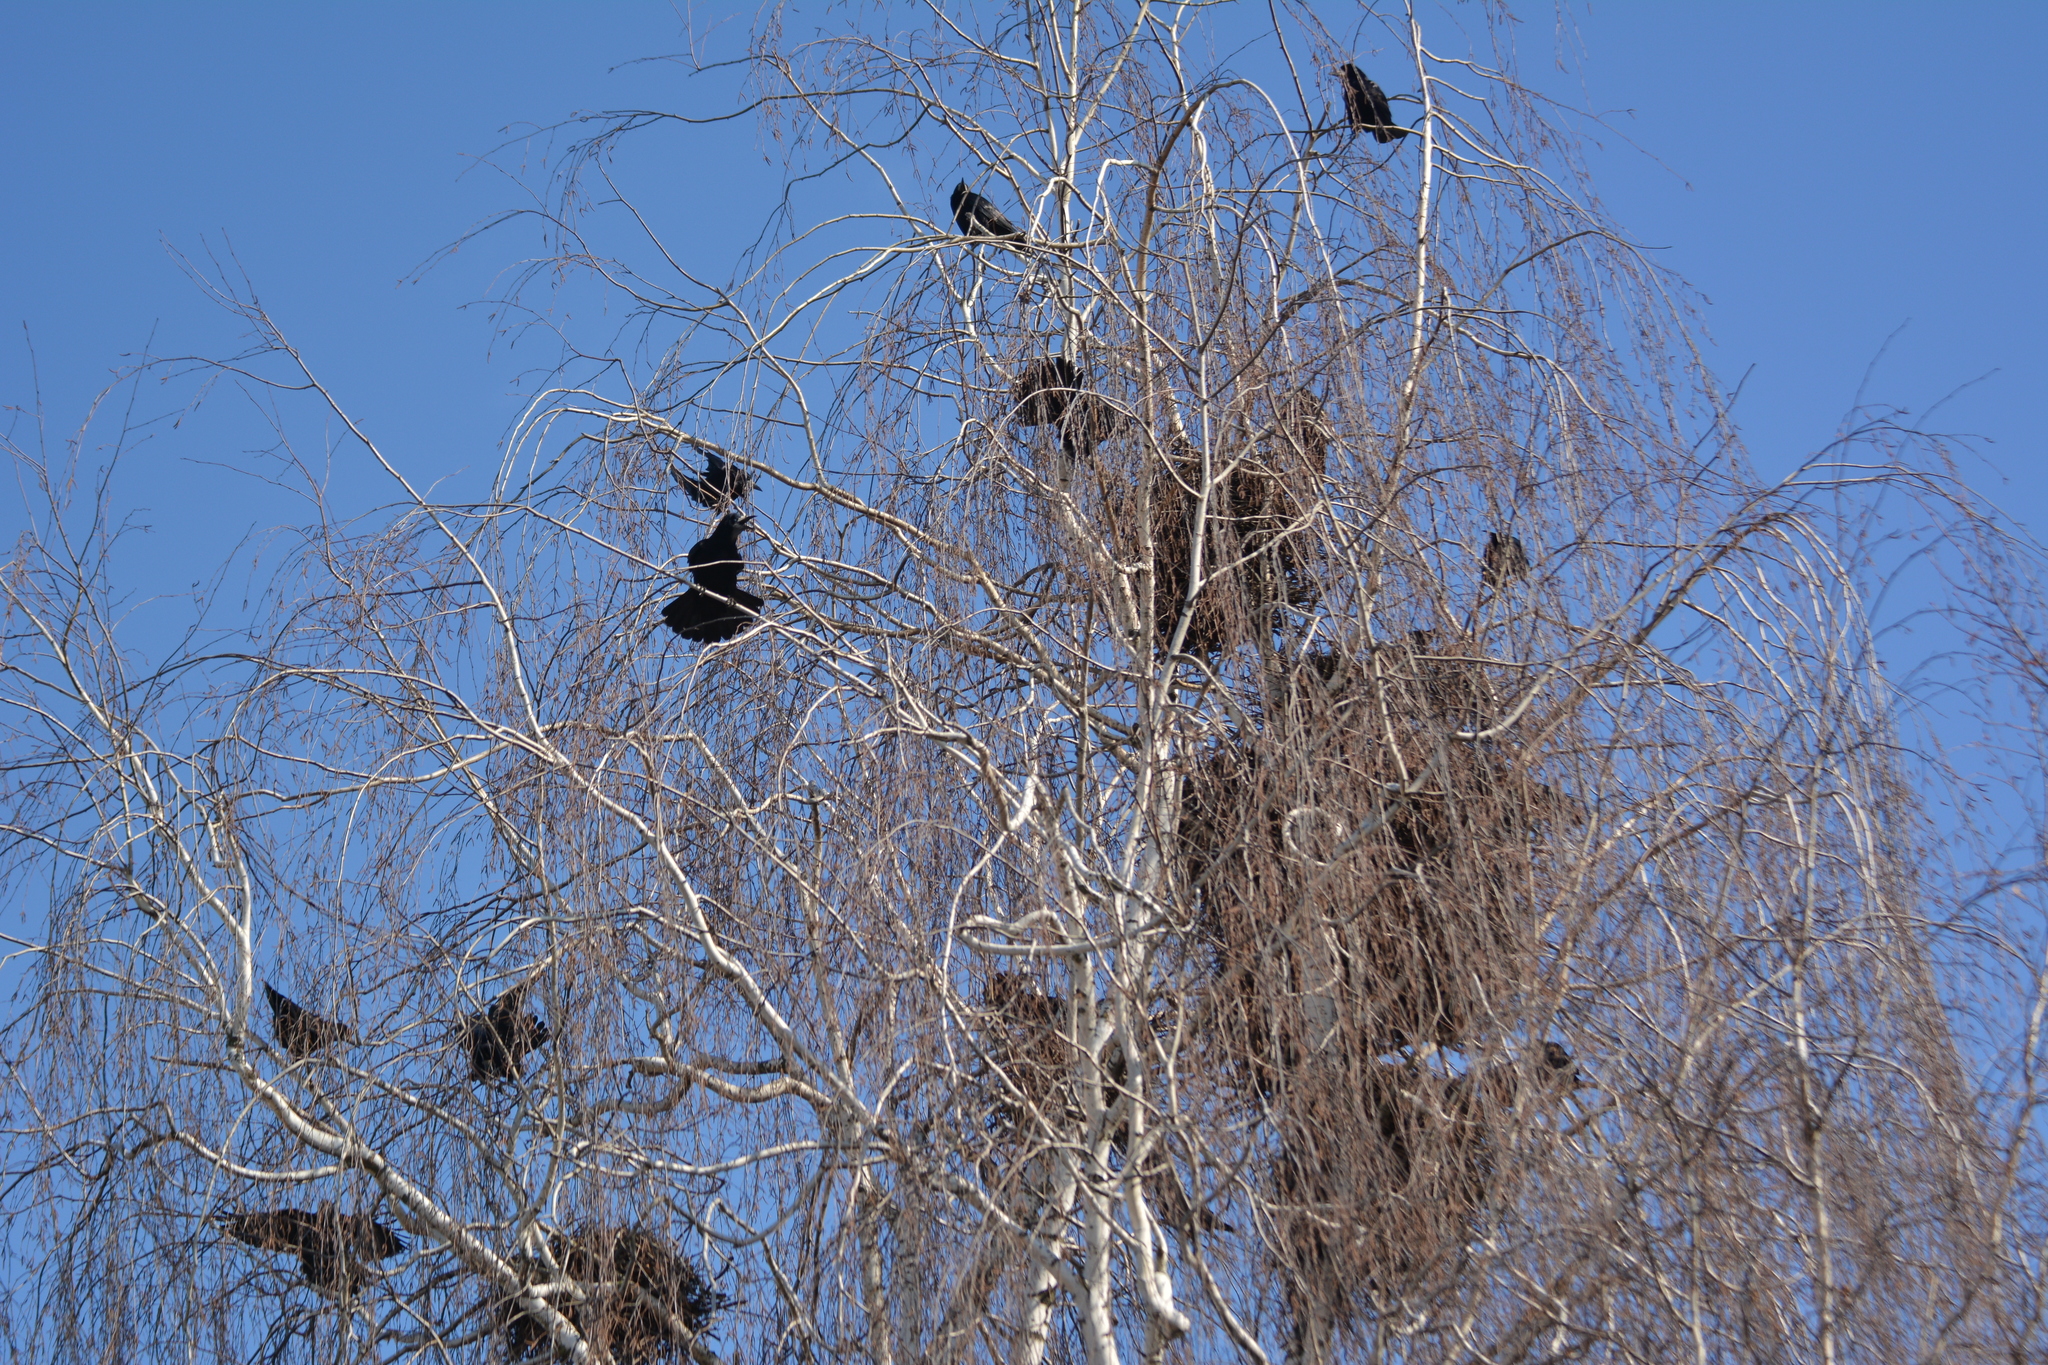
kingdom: Animalia
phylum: Chordata
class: Aves
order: Passeriformes
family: Corvidae
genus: Corvus
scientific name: Corvus frugilegus
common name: Rook
